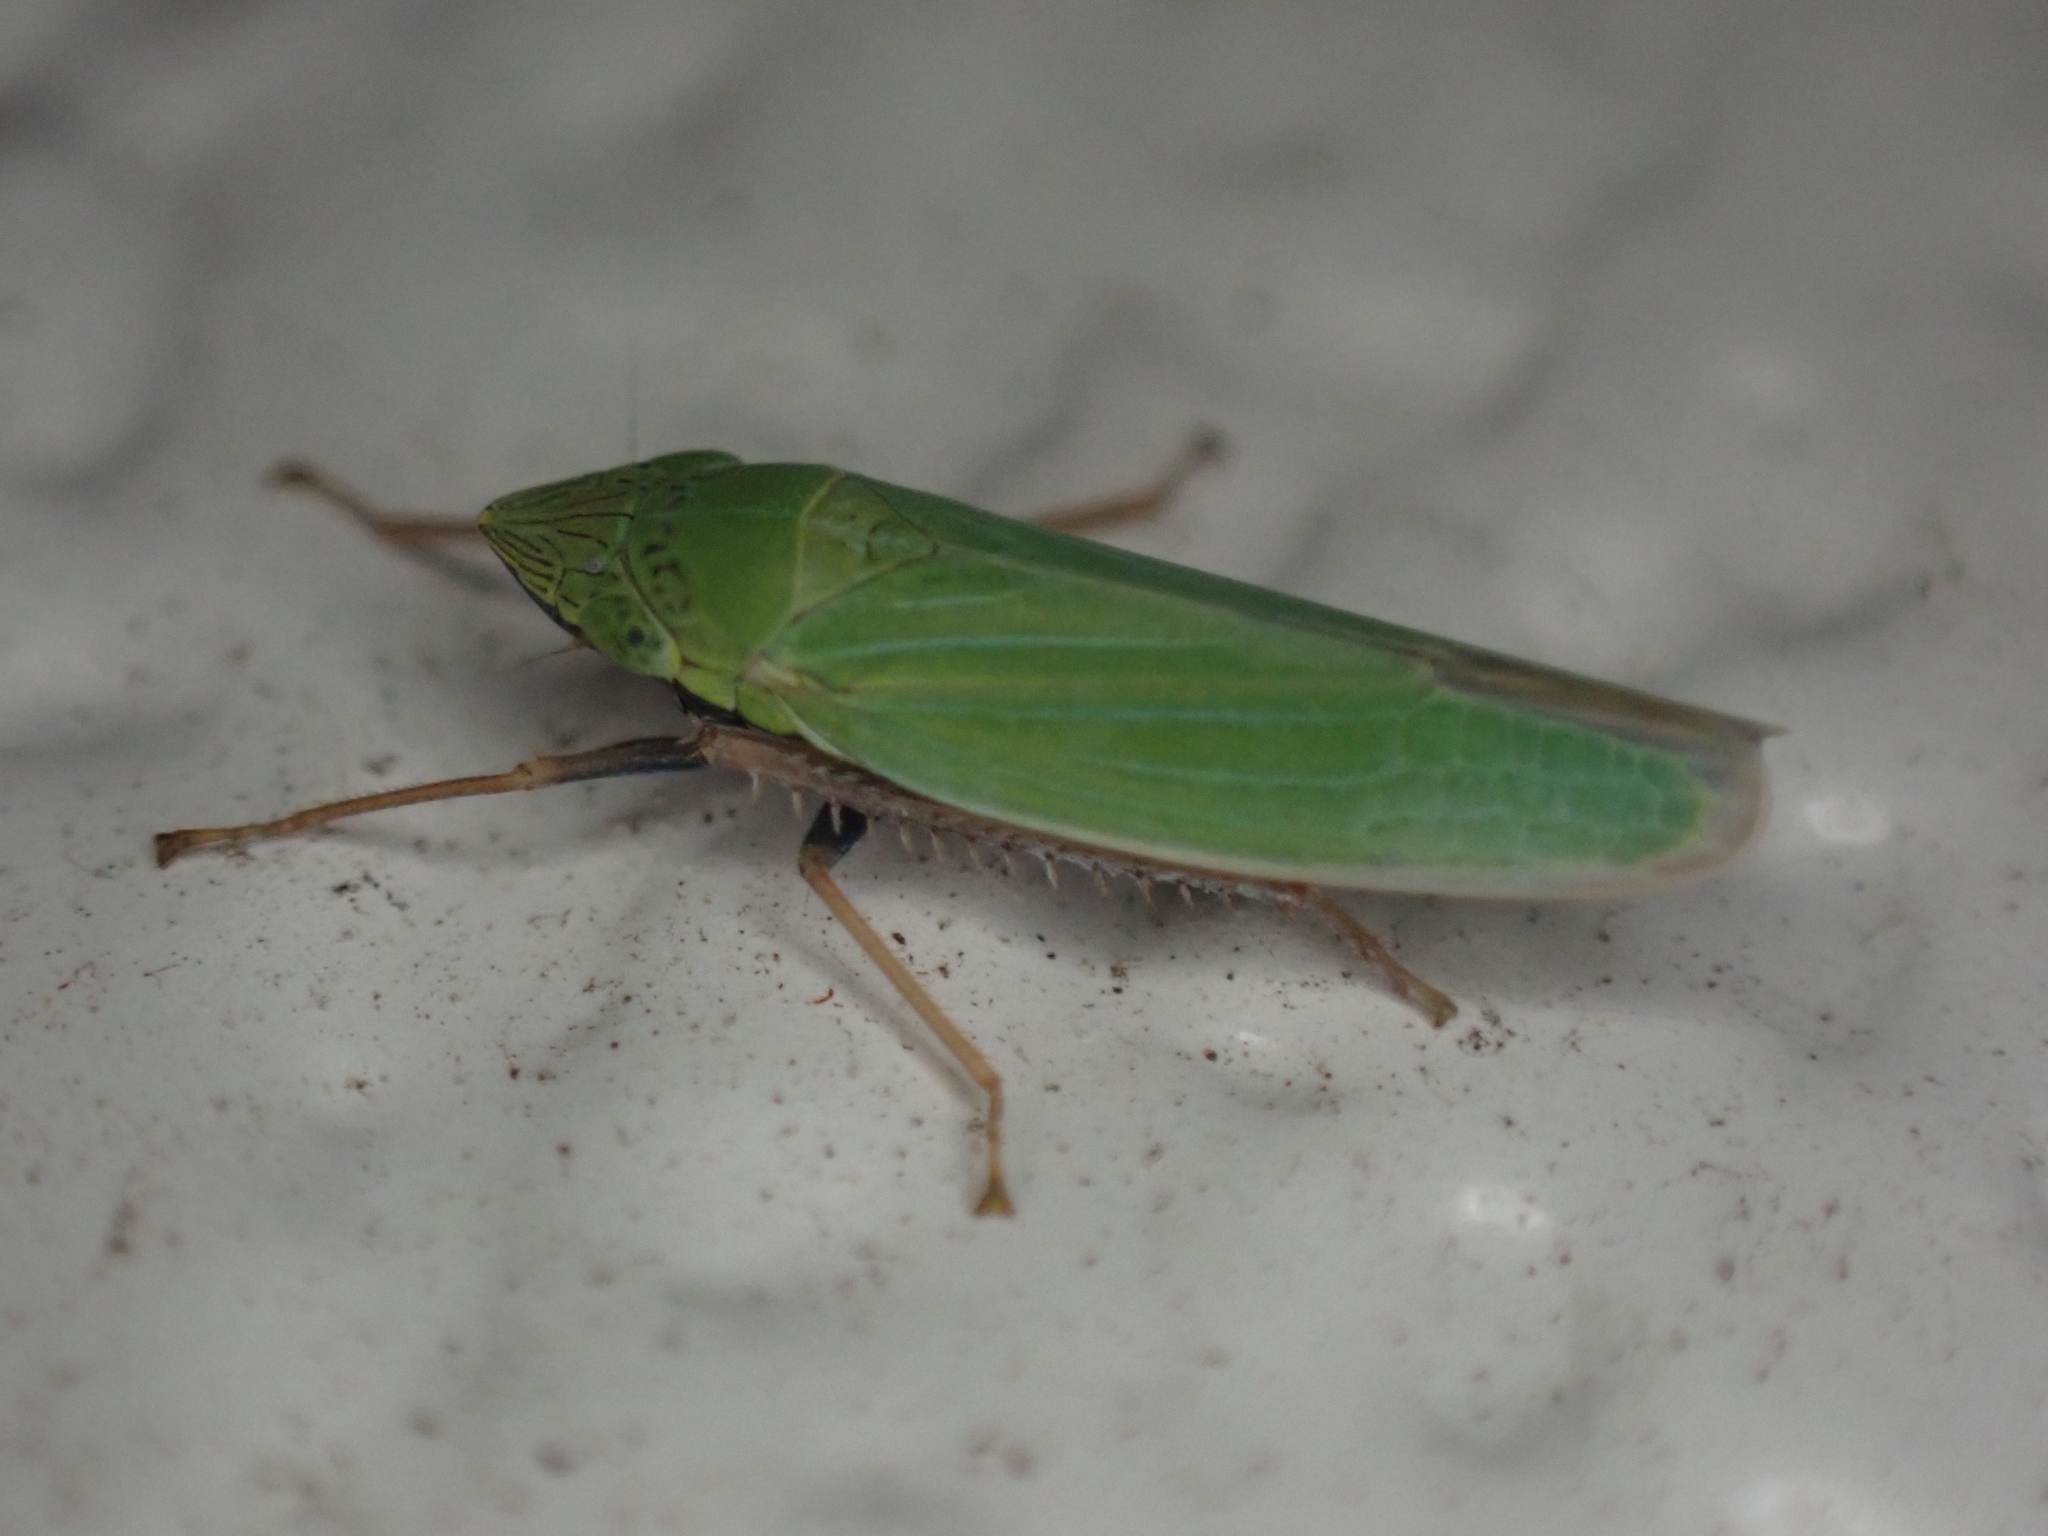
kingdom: Animalia
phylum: Arthropoda
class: Insecta
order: Hemiptera
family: Cicadellidae
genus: Draeculacephala
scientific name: Draeculacephala robinsoni
